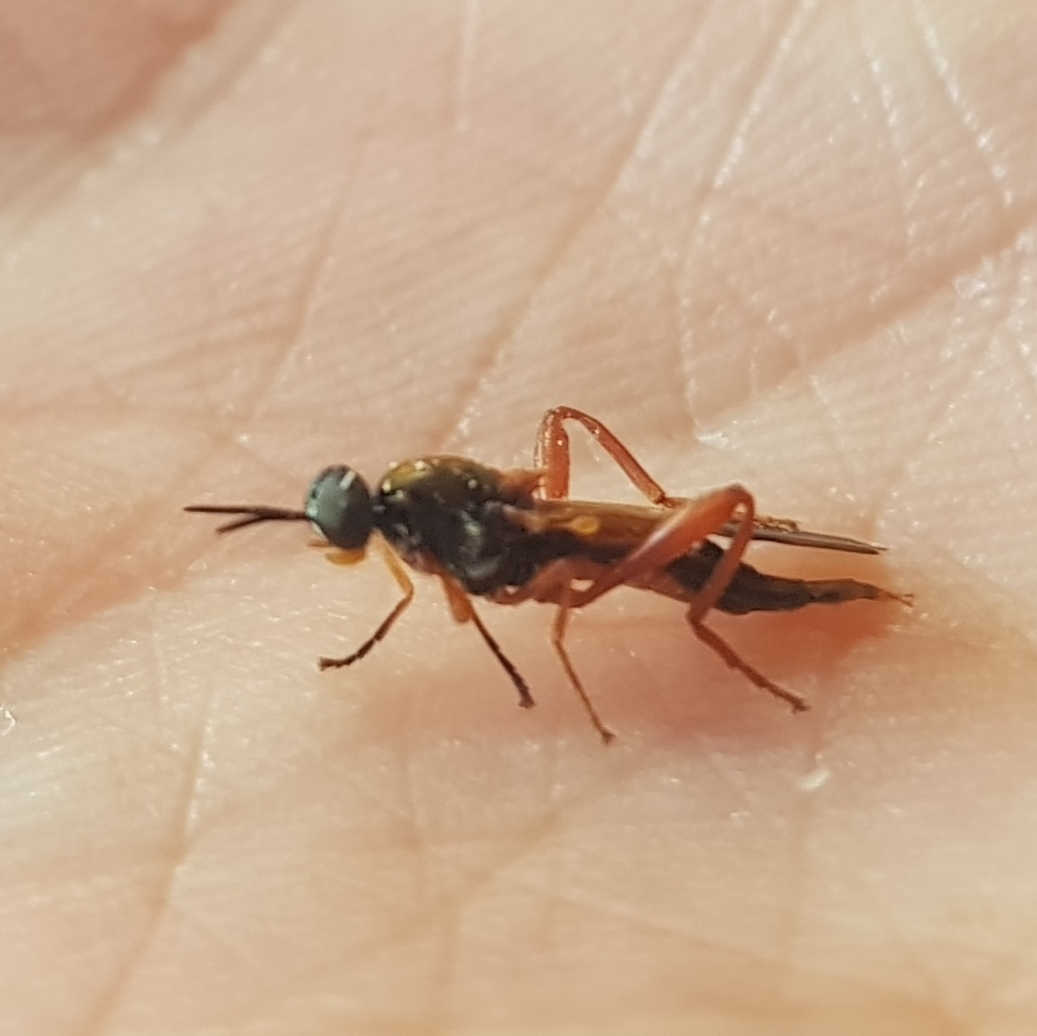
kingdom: Animalia
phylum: Arthropoda
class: Insecta
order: Diptera
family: Stratiomyidae
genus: Benhamyia
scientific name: Benhamyia apicalis
